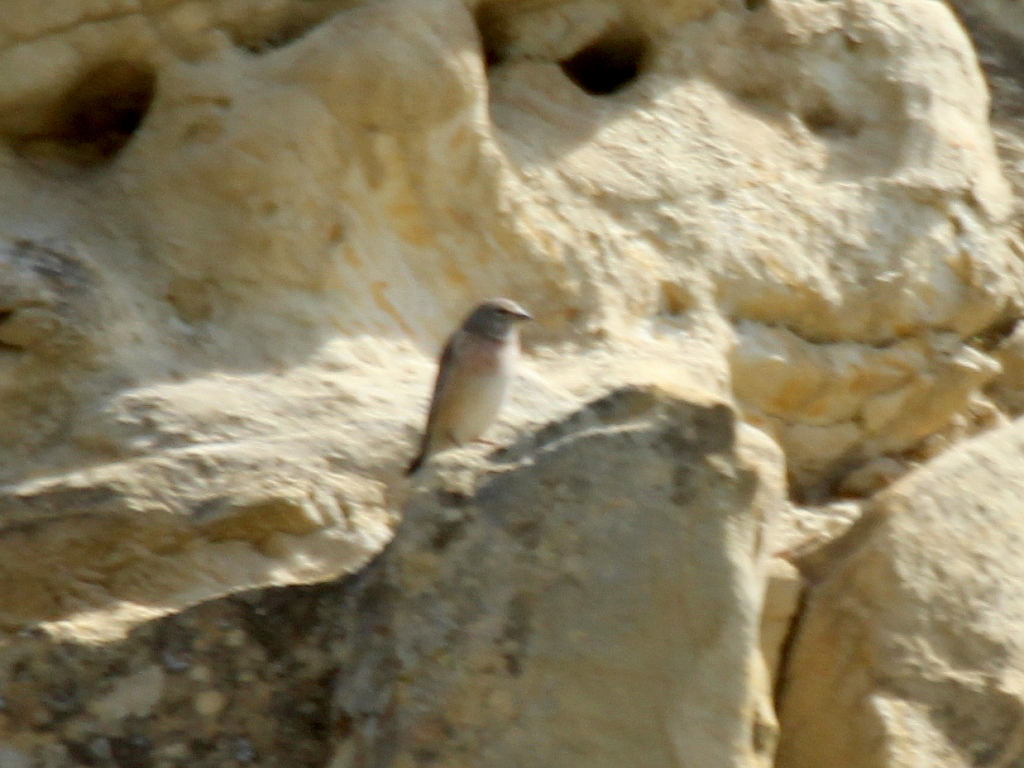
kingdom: Animalia
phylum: Chordata
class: Aves
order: Passeriformes
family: Fringillidae
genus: Linaria
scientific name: Linaria cannabina
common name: Common linnet
